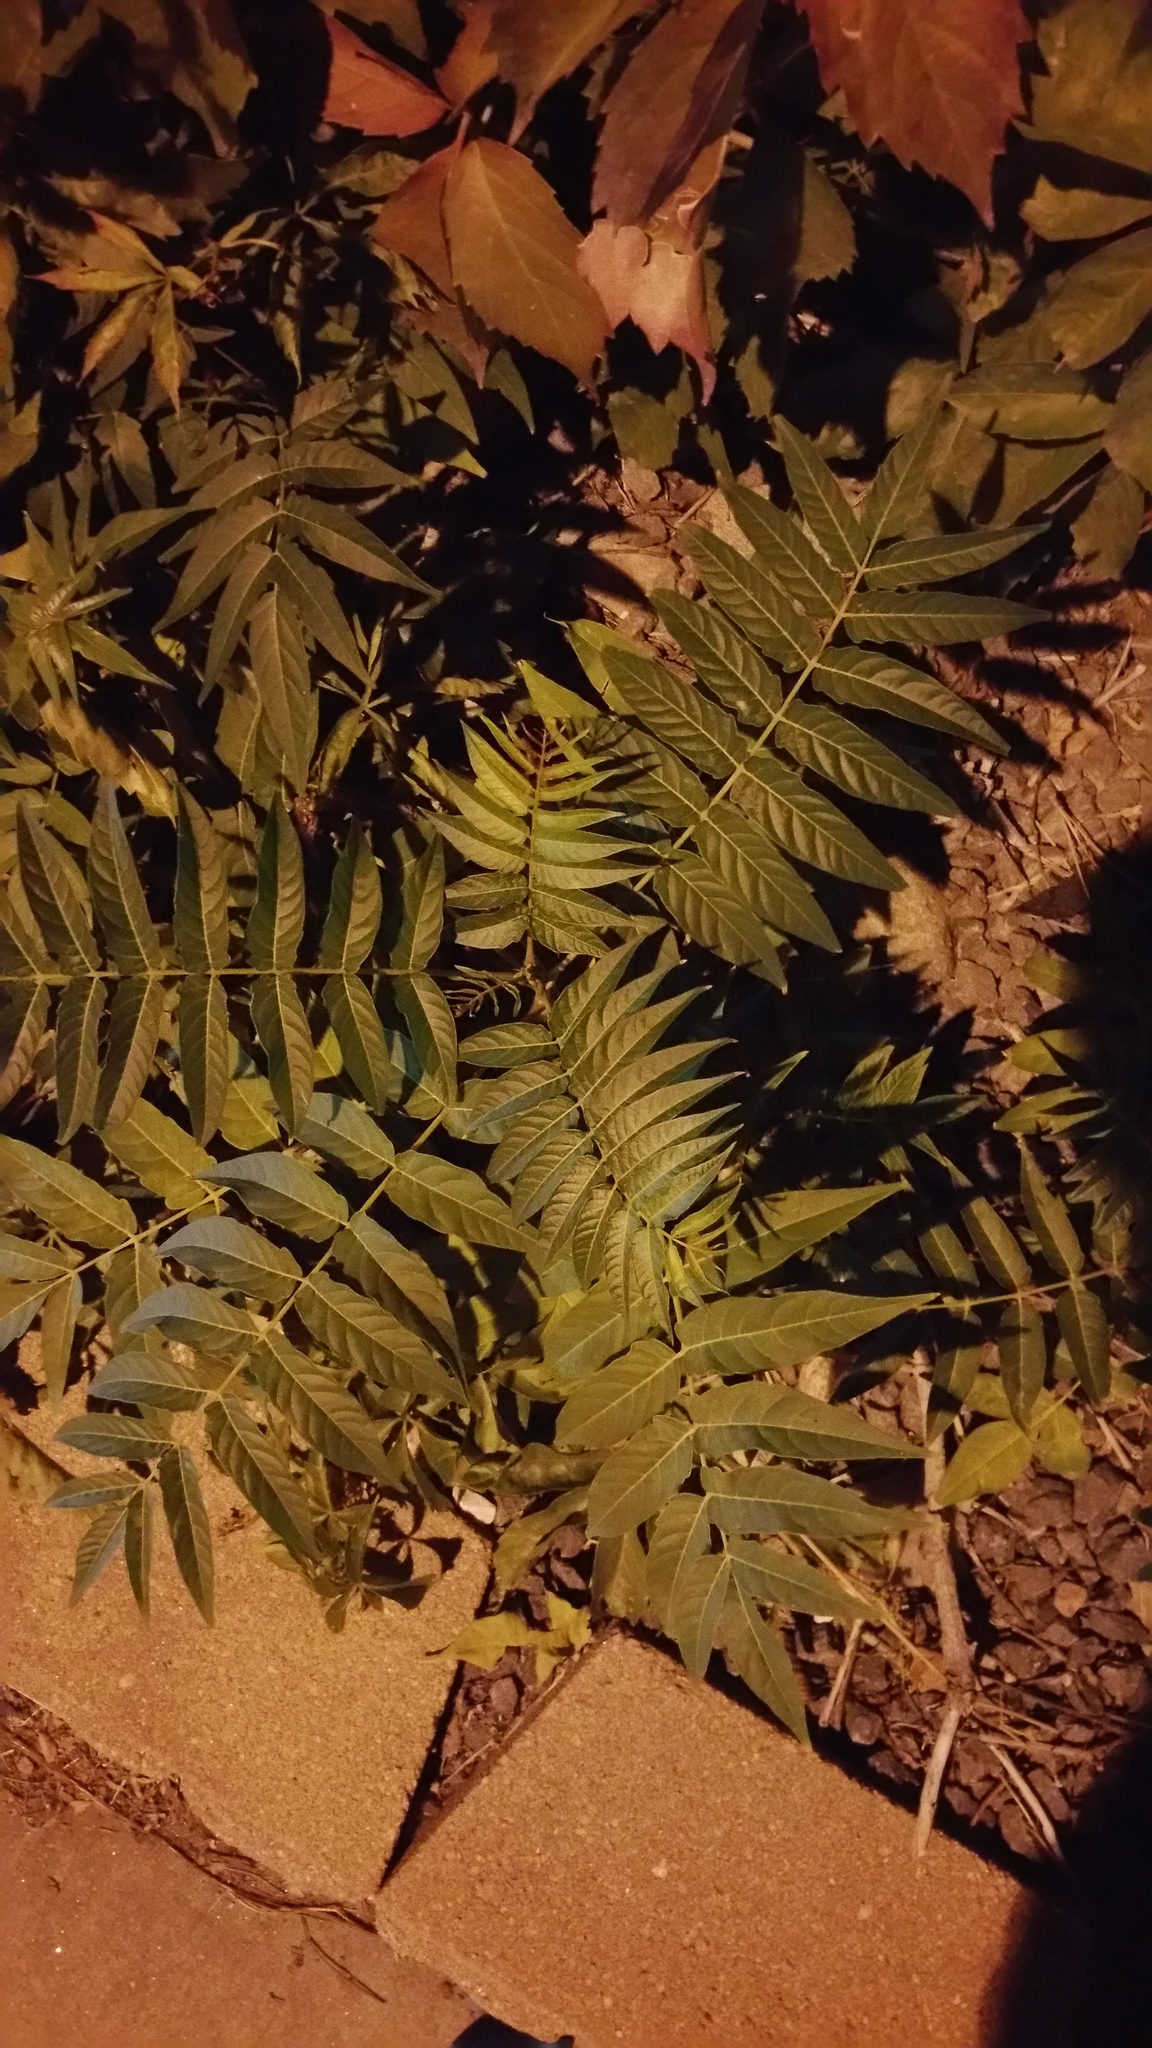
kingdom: Plantae
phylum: Tracheophyta
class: Magnoliopsida
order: Sapindales
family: Simaroubaceae
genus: Ailanthus
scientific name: Ailanthus altissima
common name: Tree-of-heaven
